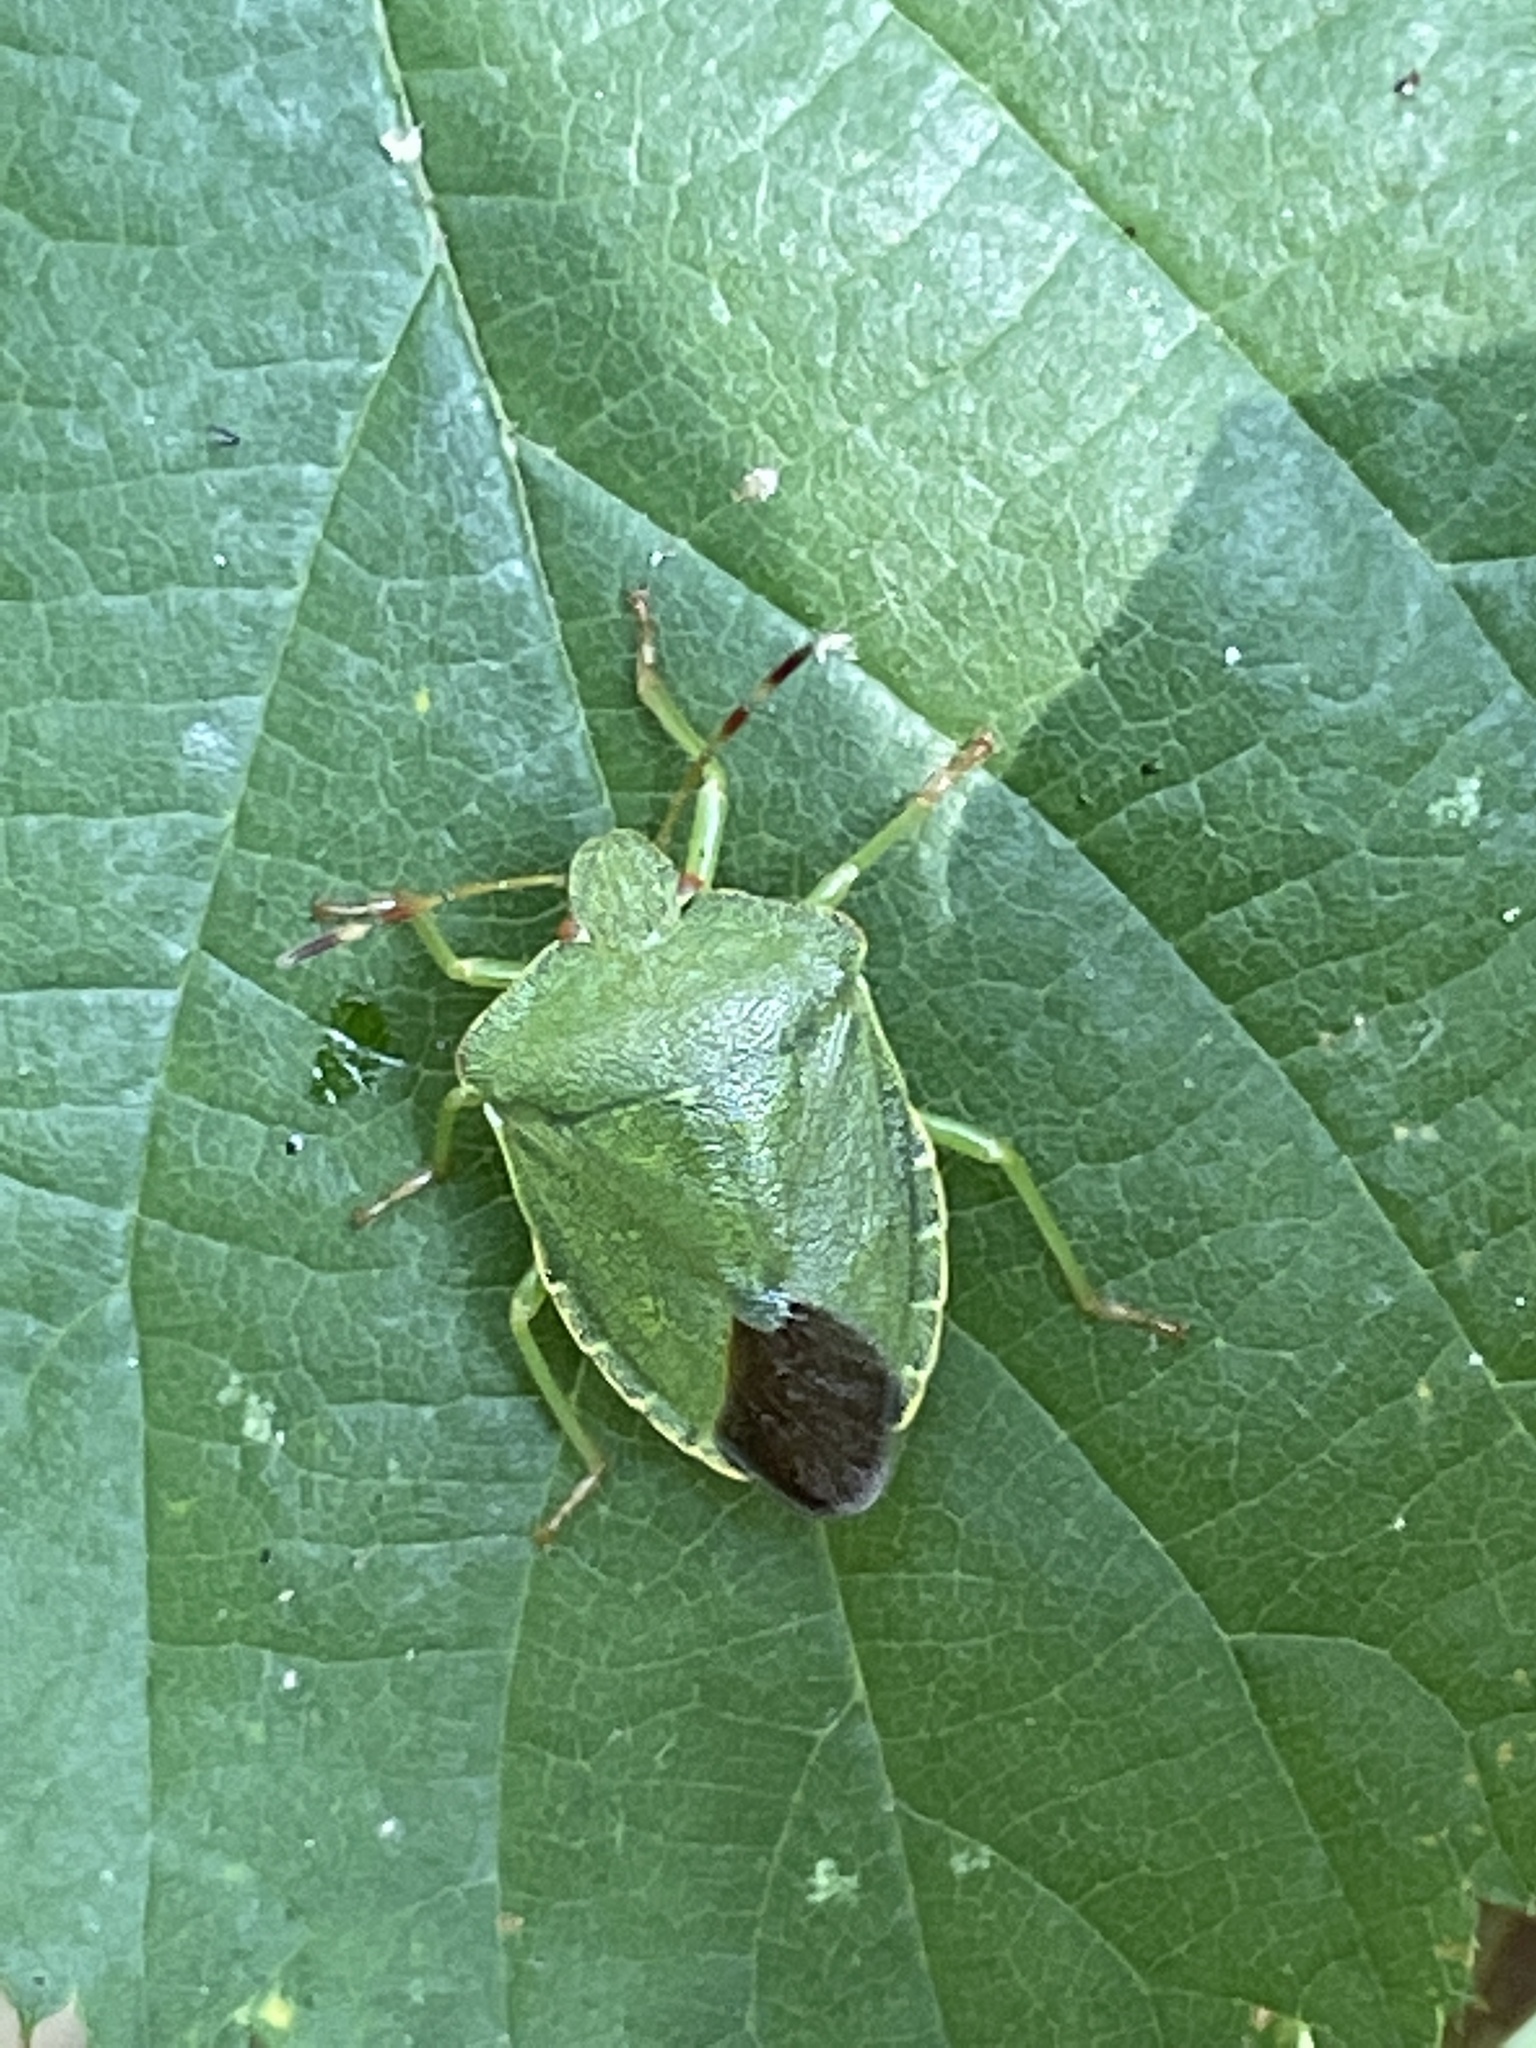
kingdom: Animalia
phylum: Arthropoda
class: Insecta
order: Hemiptera
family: Pentatomidae
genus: Palomena
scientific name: Palomena prasina
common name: Green shieldbug
